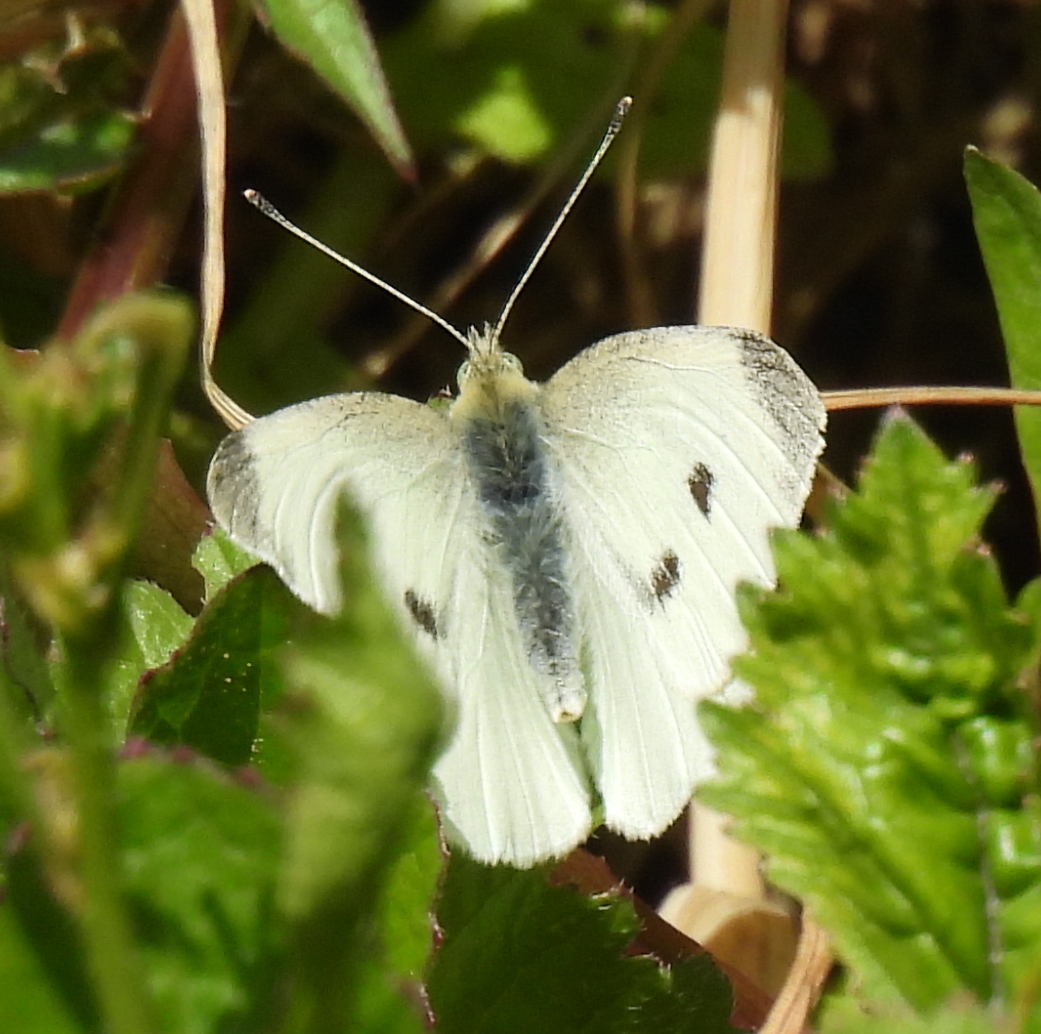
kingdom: Animalia
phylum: Arthropoda
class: Insecta
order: Lepidoptera
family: Pieridae
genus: Pieris
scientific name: Pieris rapae
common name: Small white
